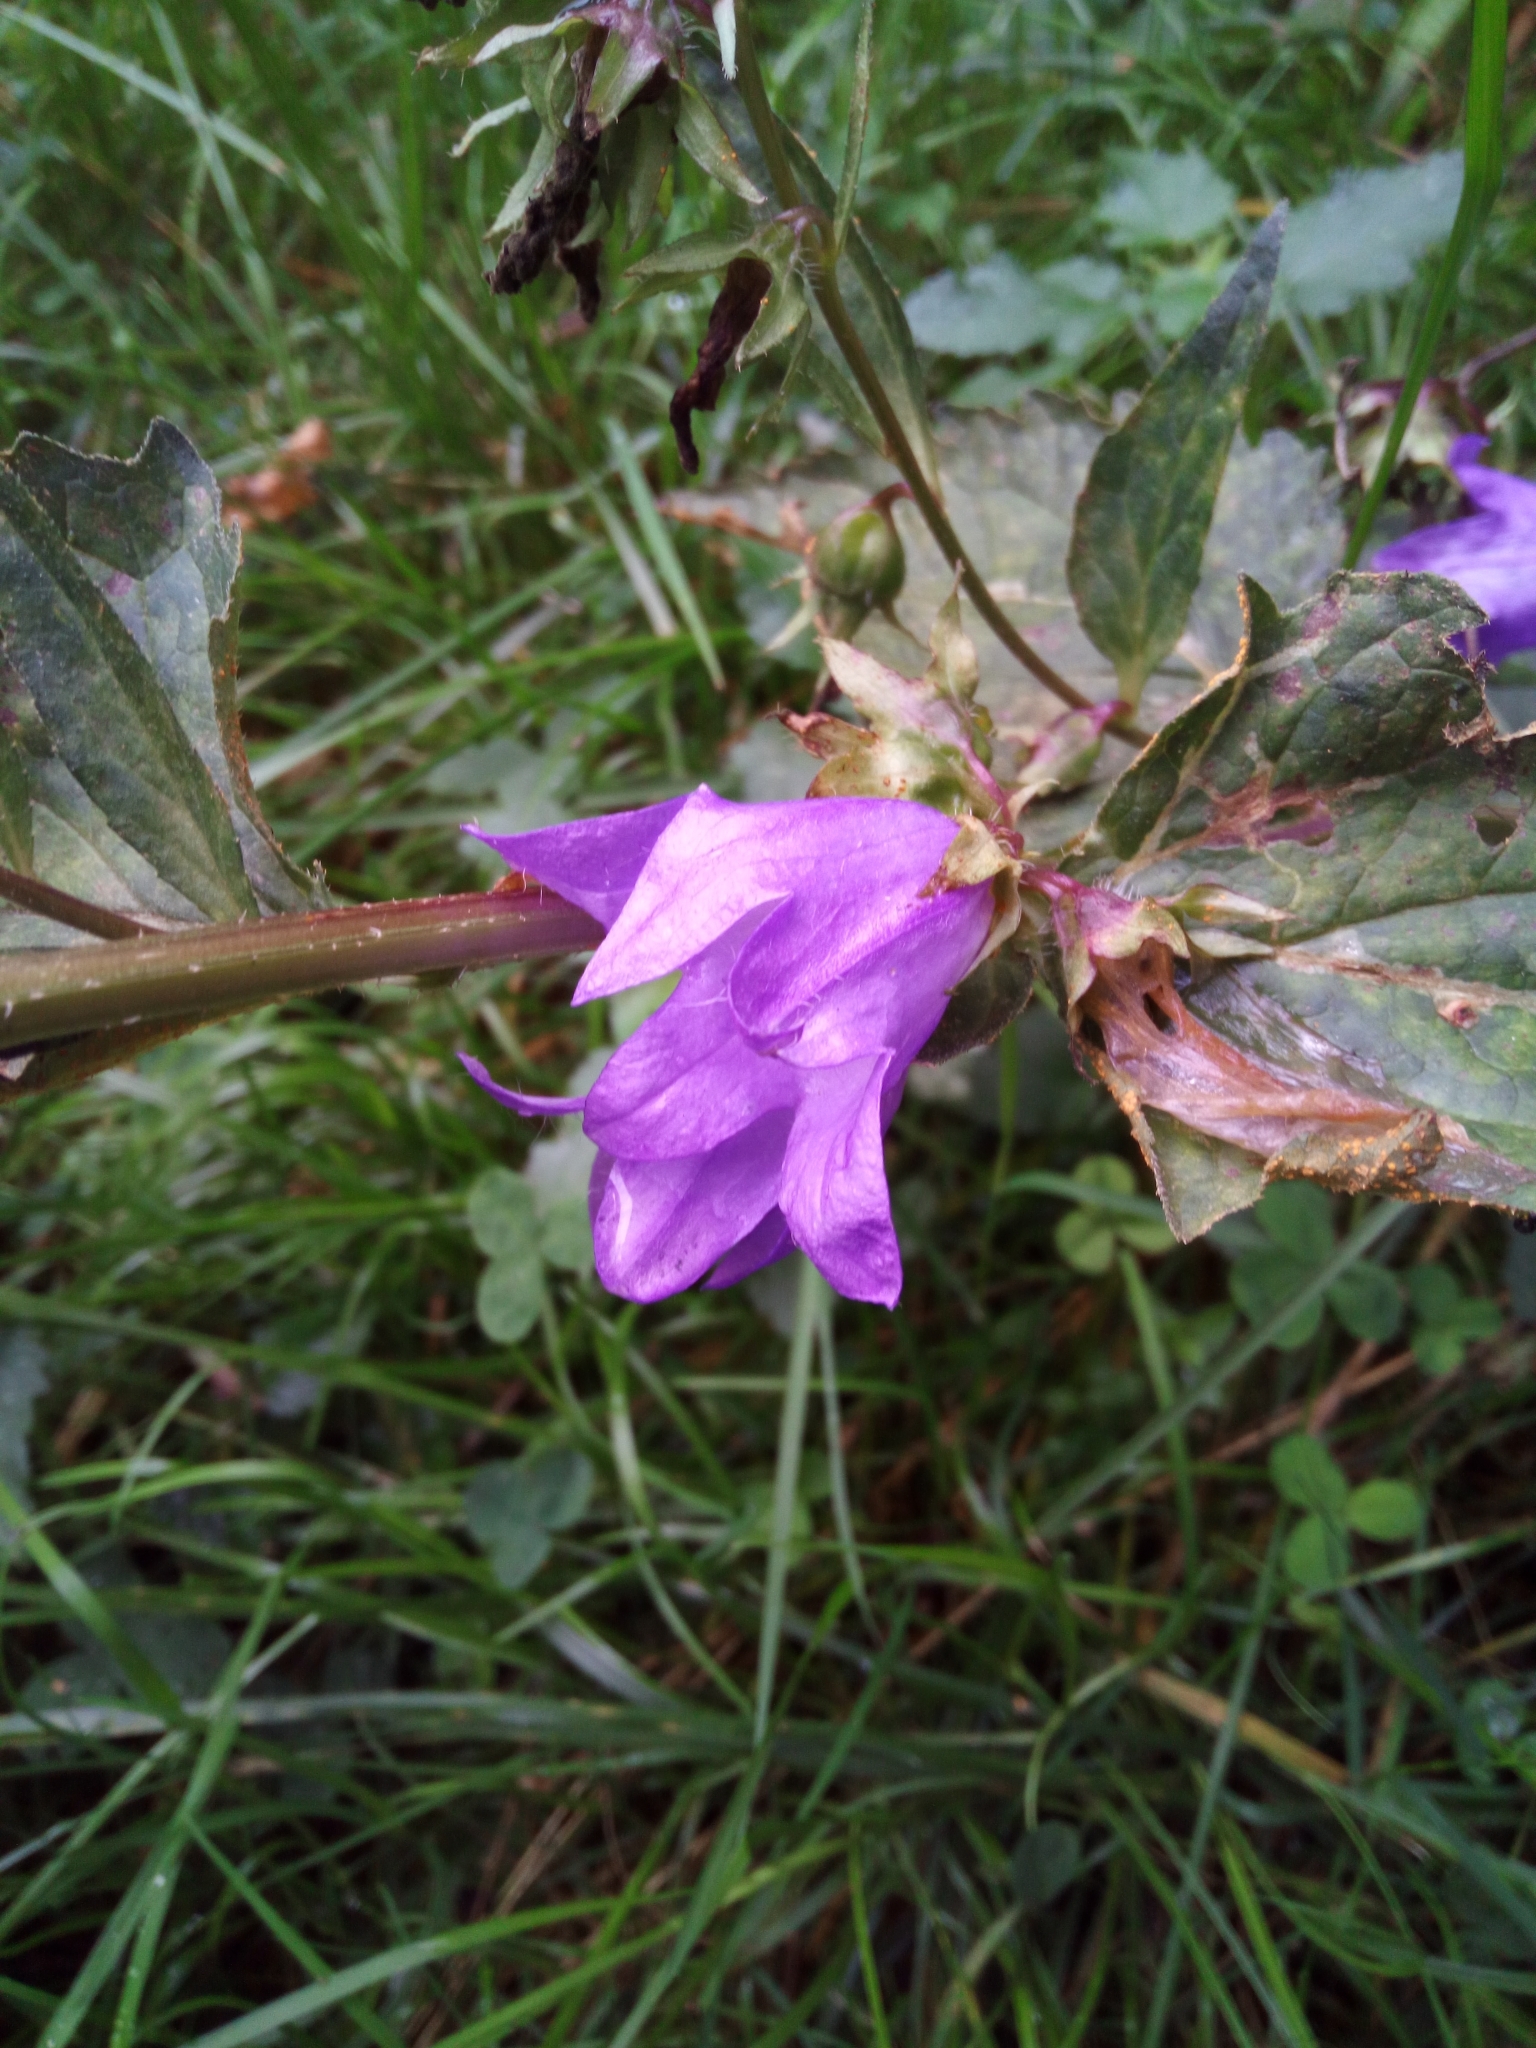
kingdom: Plantae
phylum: Tracheophyta
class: Magnoliopsida
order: Asterales
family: Campanulaceae
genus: Campanula
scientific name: Campanula trachelium
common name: Nettle-leaved bellflower
